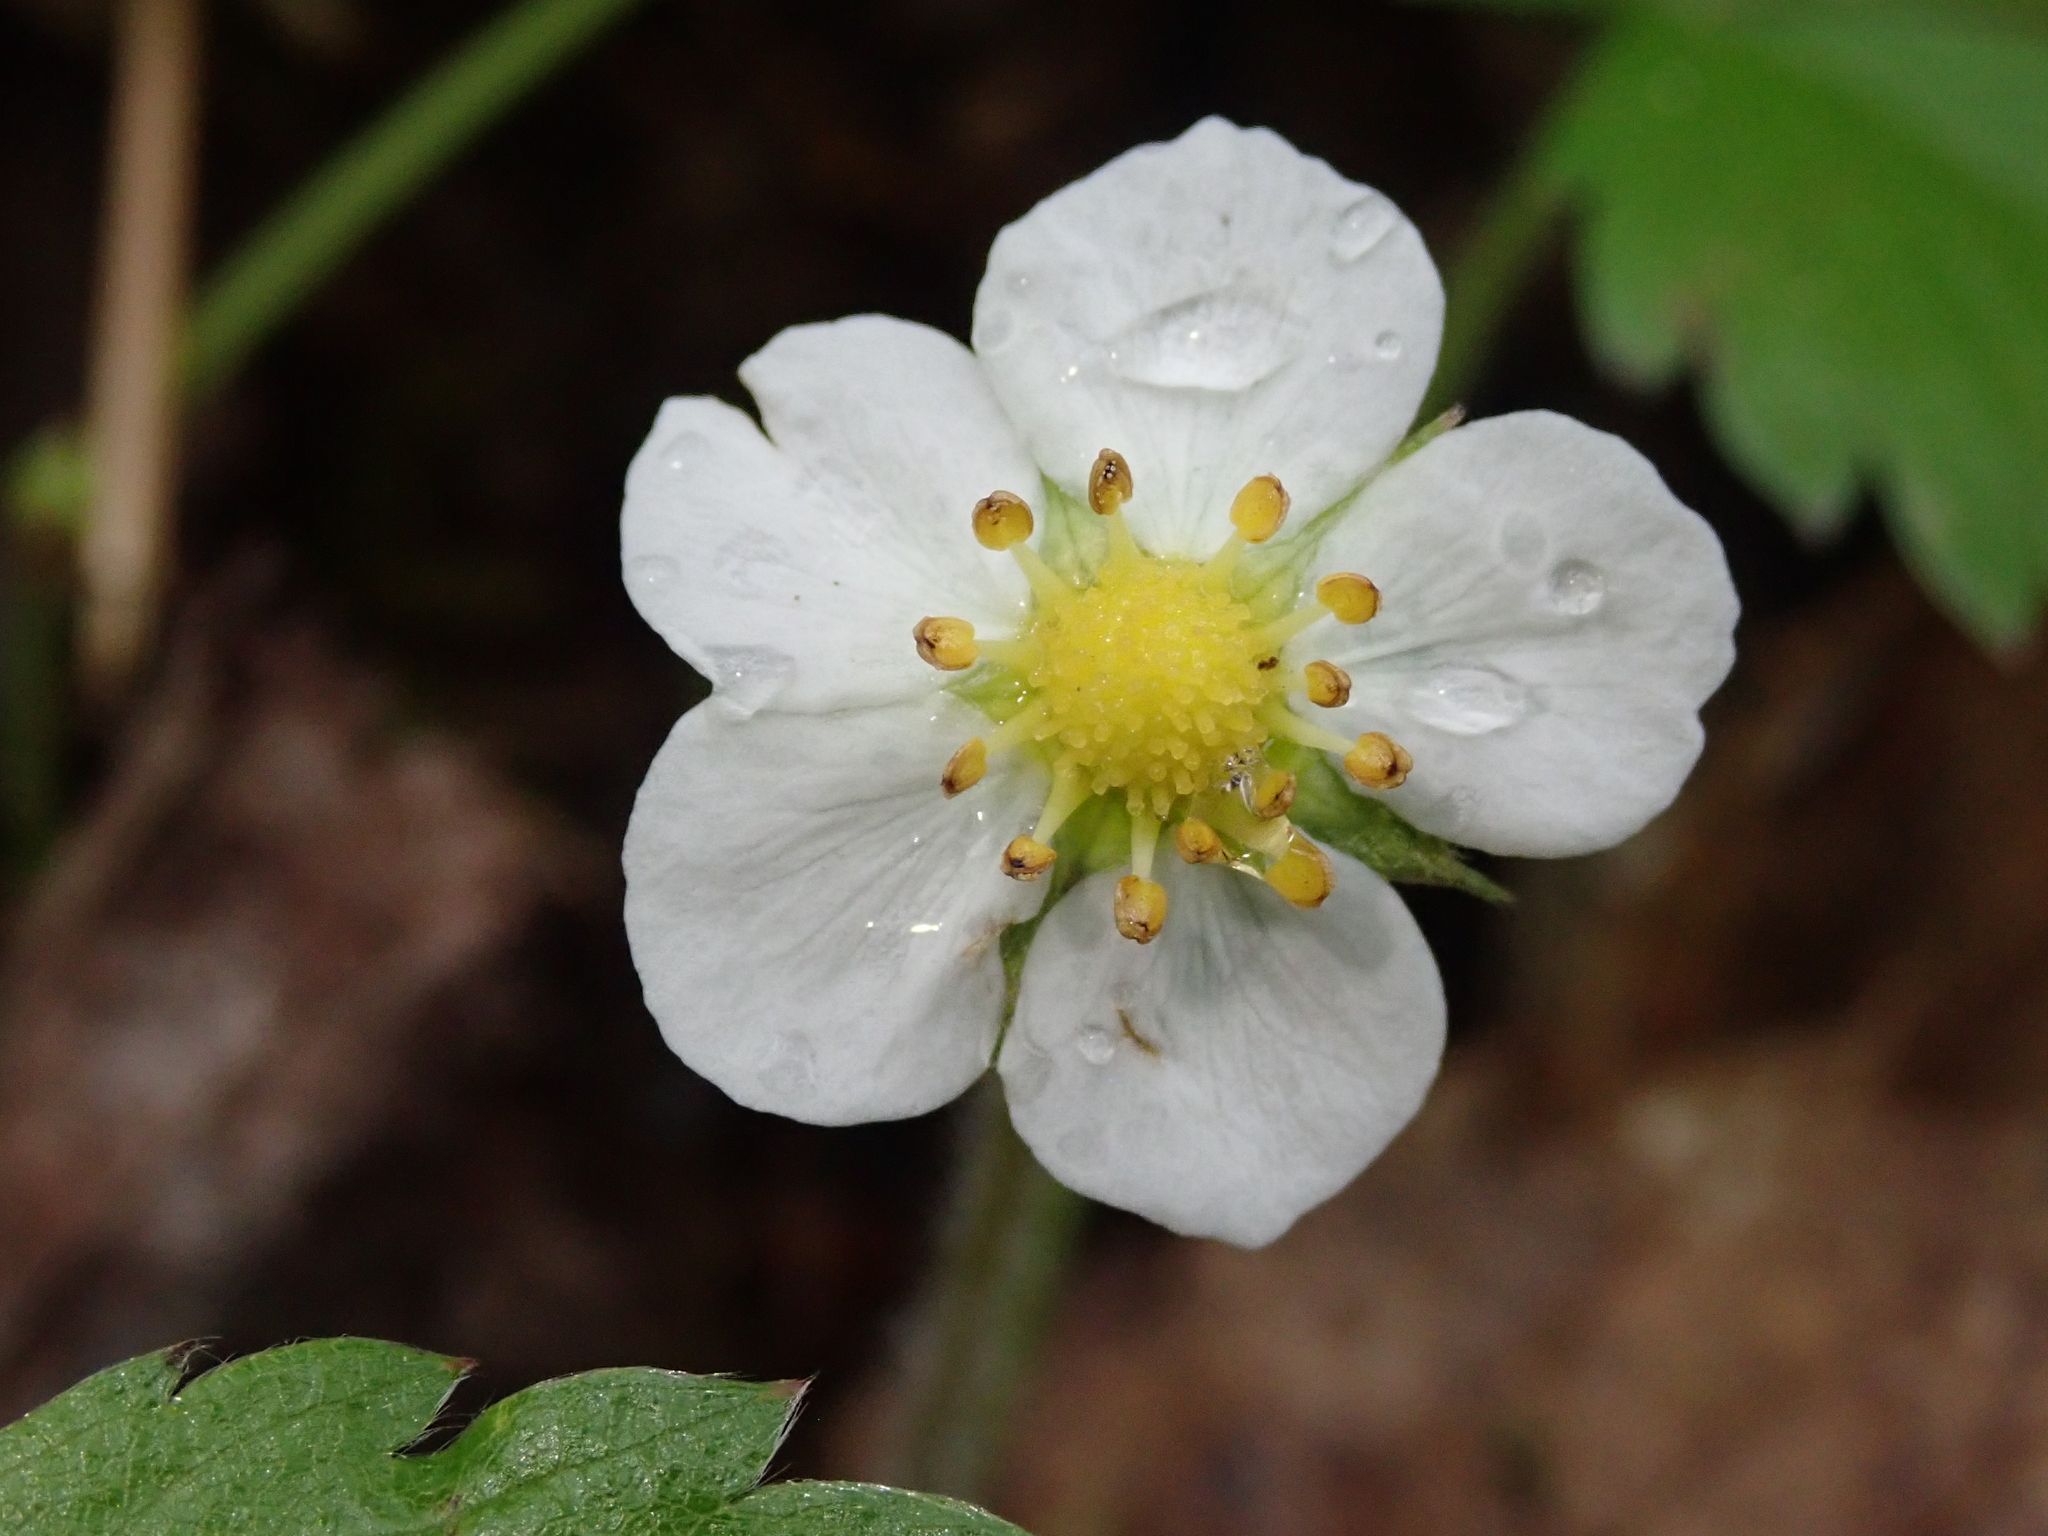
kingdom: Plantae
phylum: Tracheophyta
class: Magnoliopsida
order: Rosales
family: Rosaceae
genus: Fragaria
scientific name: Fragaria vesca
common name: Wild strawberry
